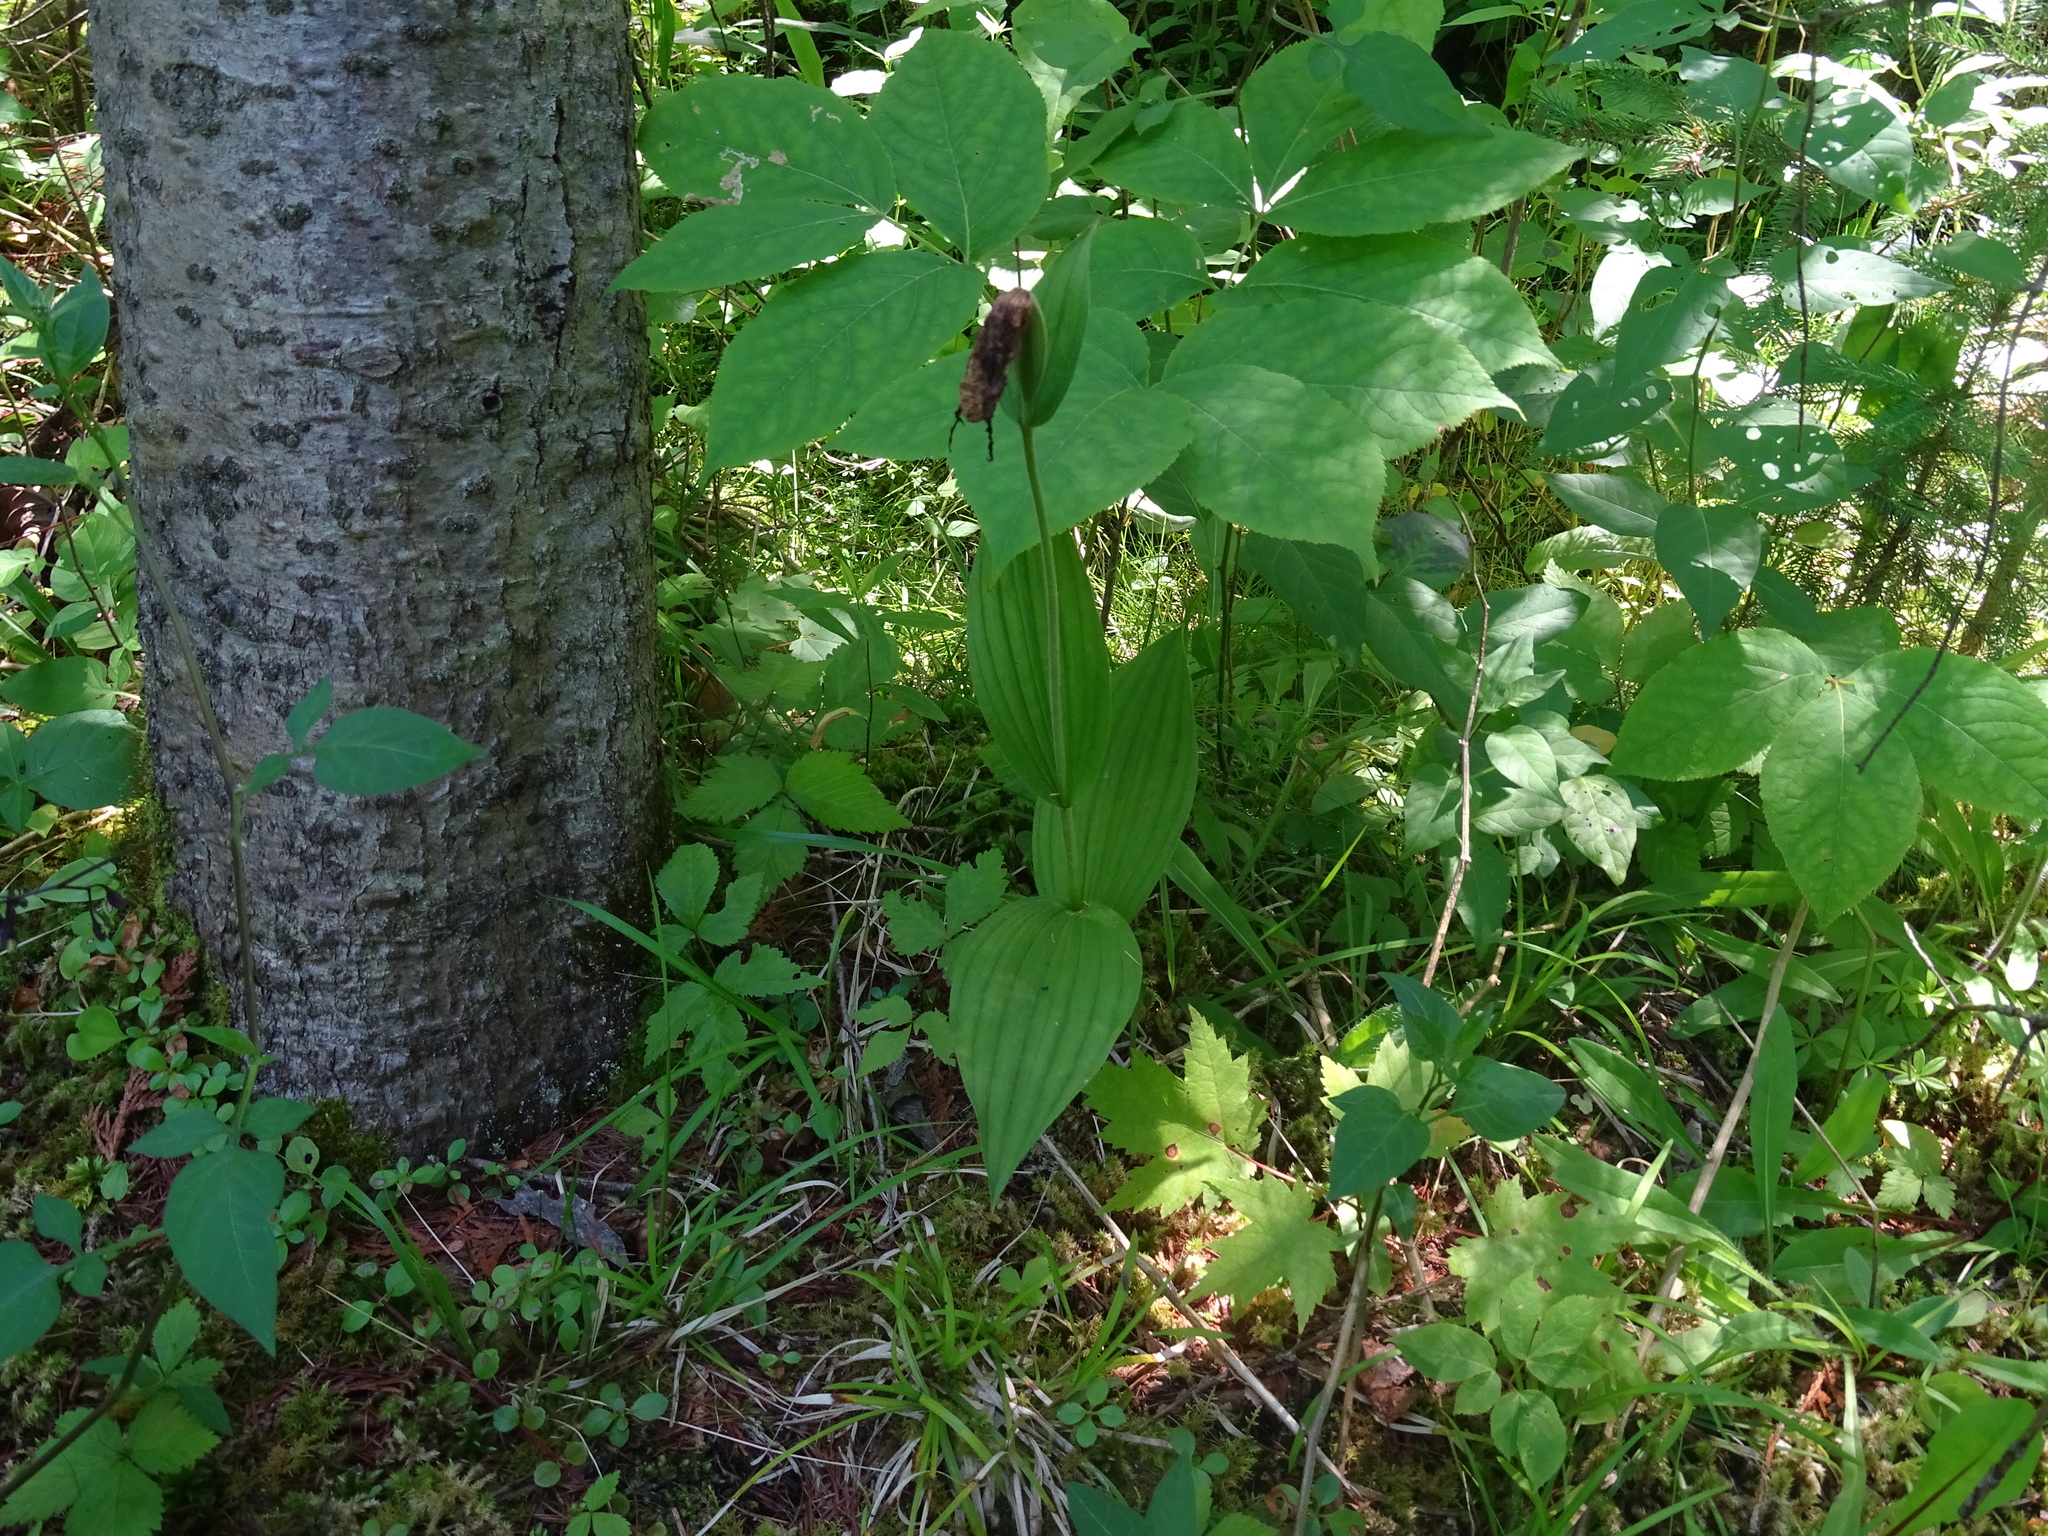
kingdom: Plantae
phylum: Tracheophyta
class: Liliopsida
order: Asparagales
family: Orchidaceae
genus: Cypripedium
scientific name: Cypripedium parviflorum
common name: American yellow lady's-slipper
